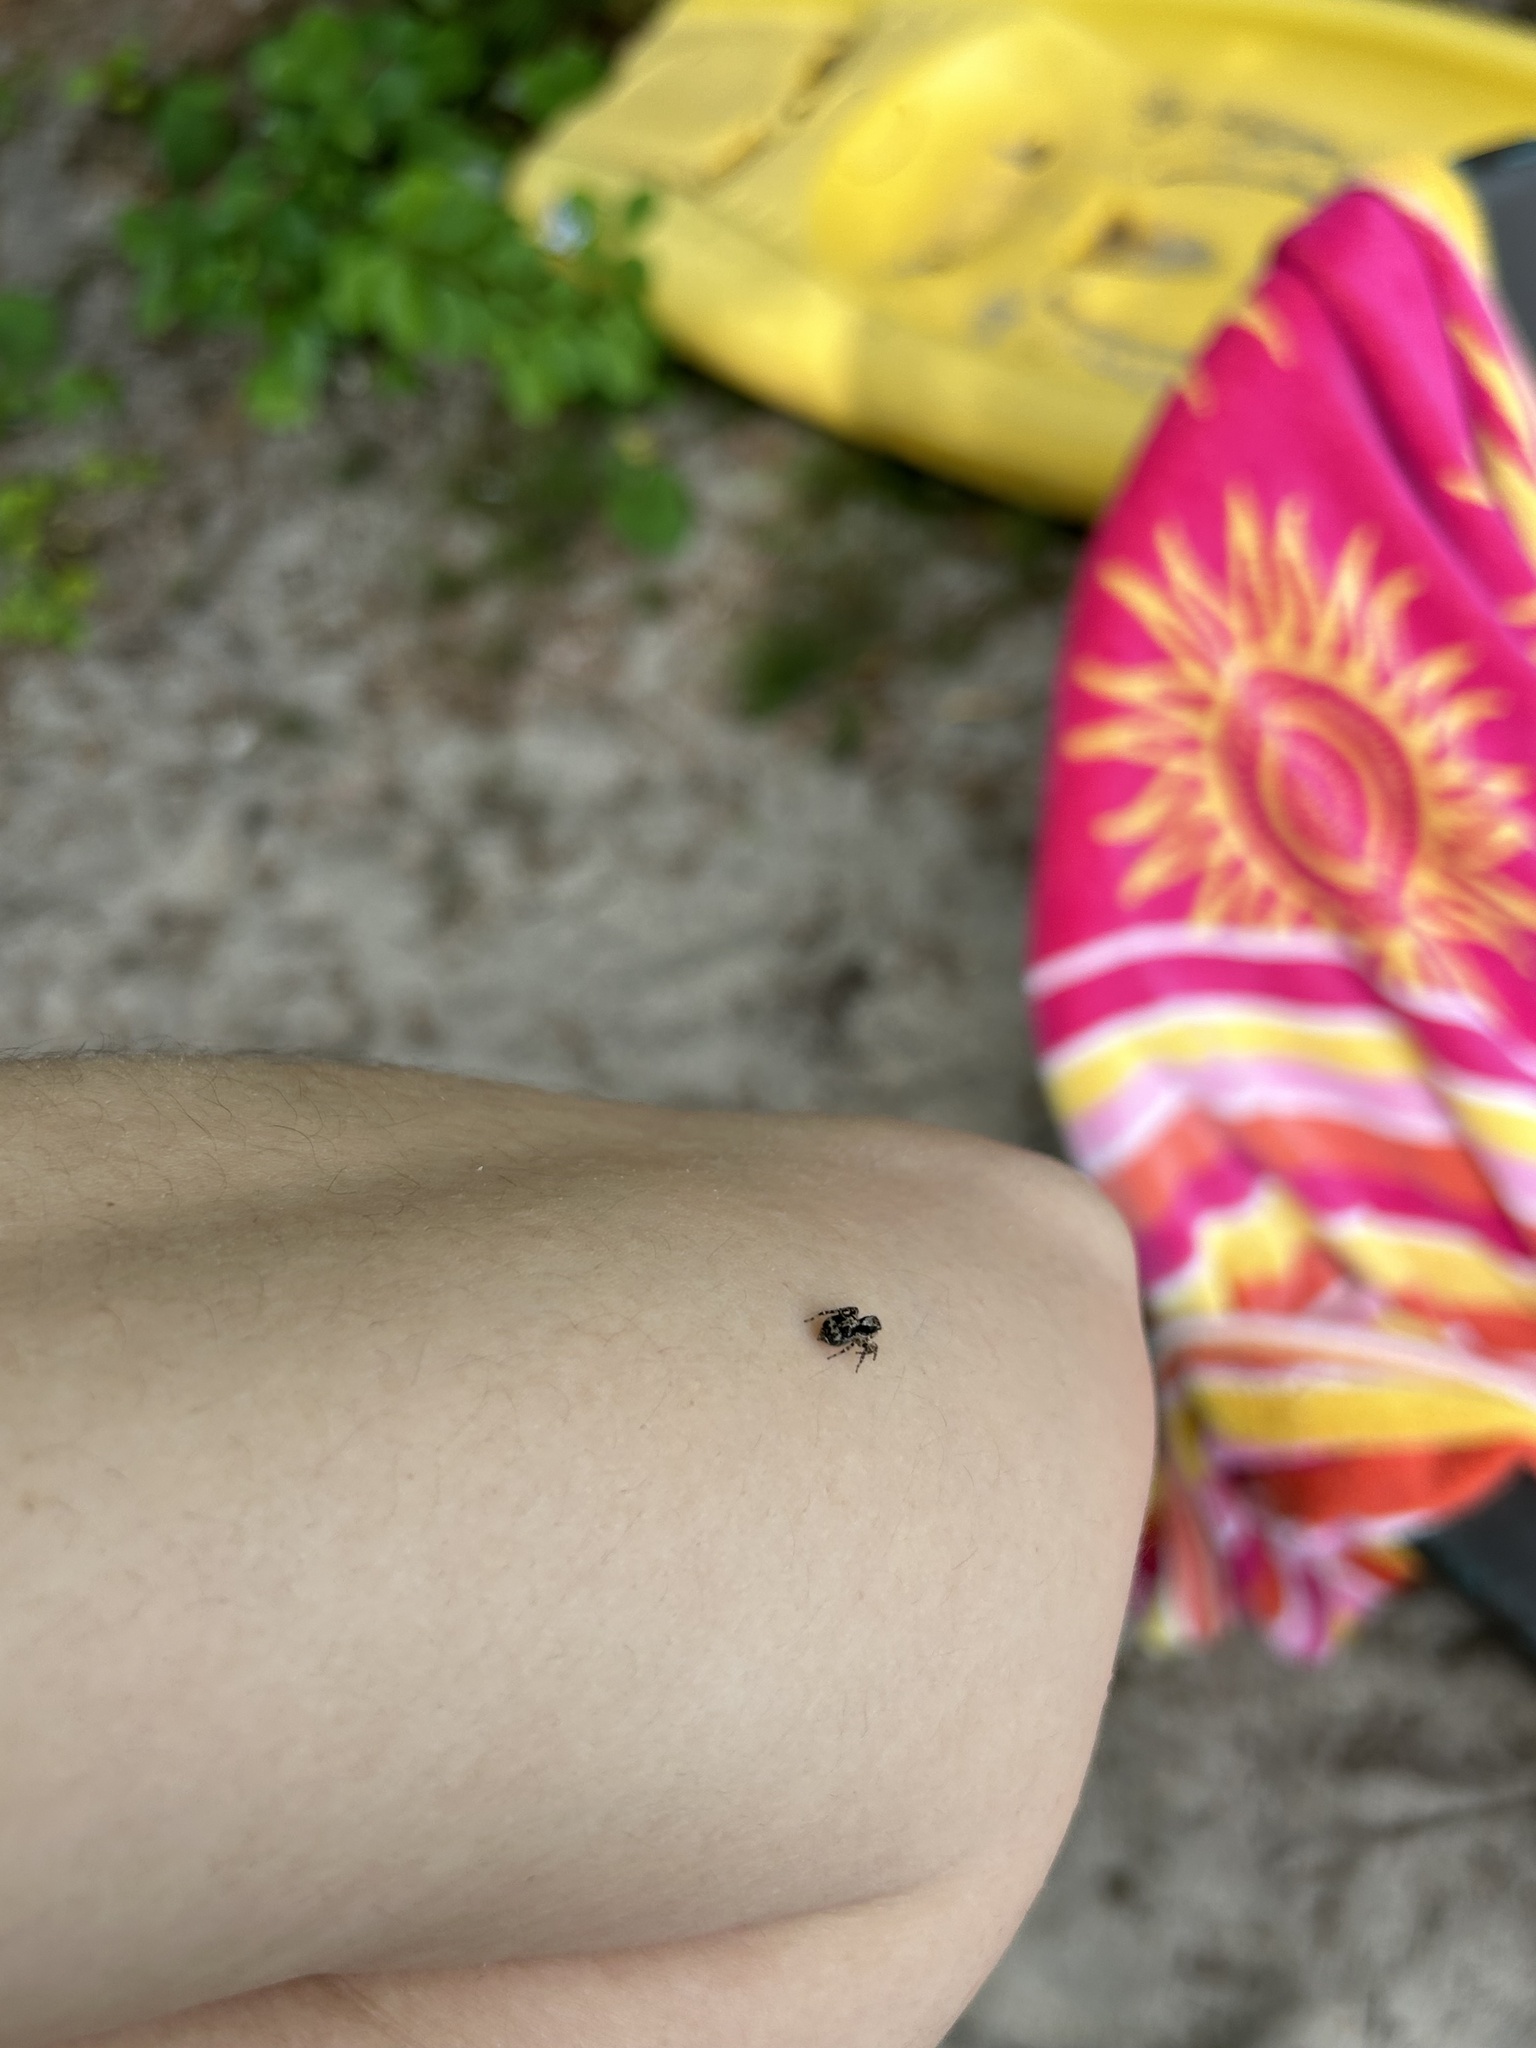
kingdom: Animalia
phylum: Arthropoda
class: Arachnida
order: Araneae
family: Salticidae
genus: Naphrys
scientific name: Naphrys pulex
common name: Flea jumping spider
